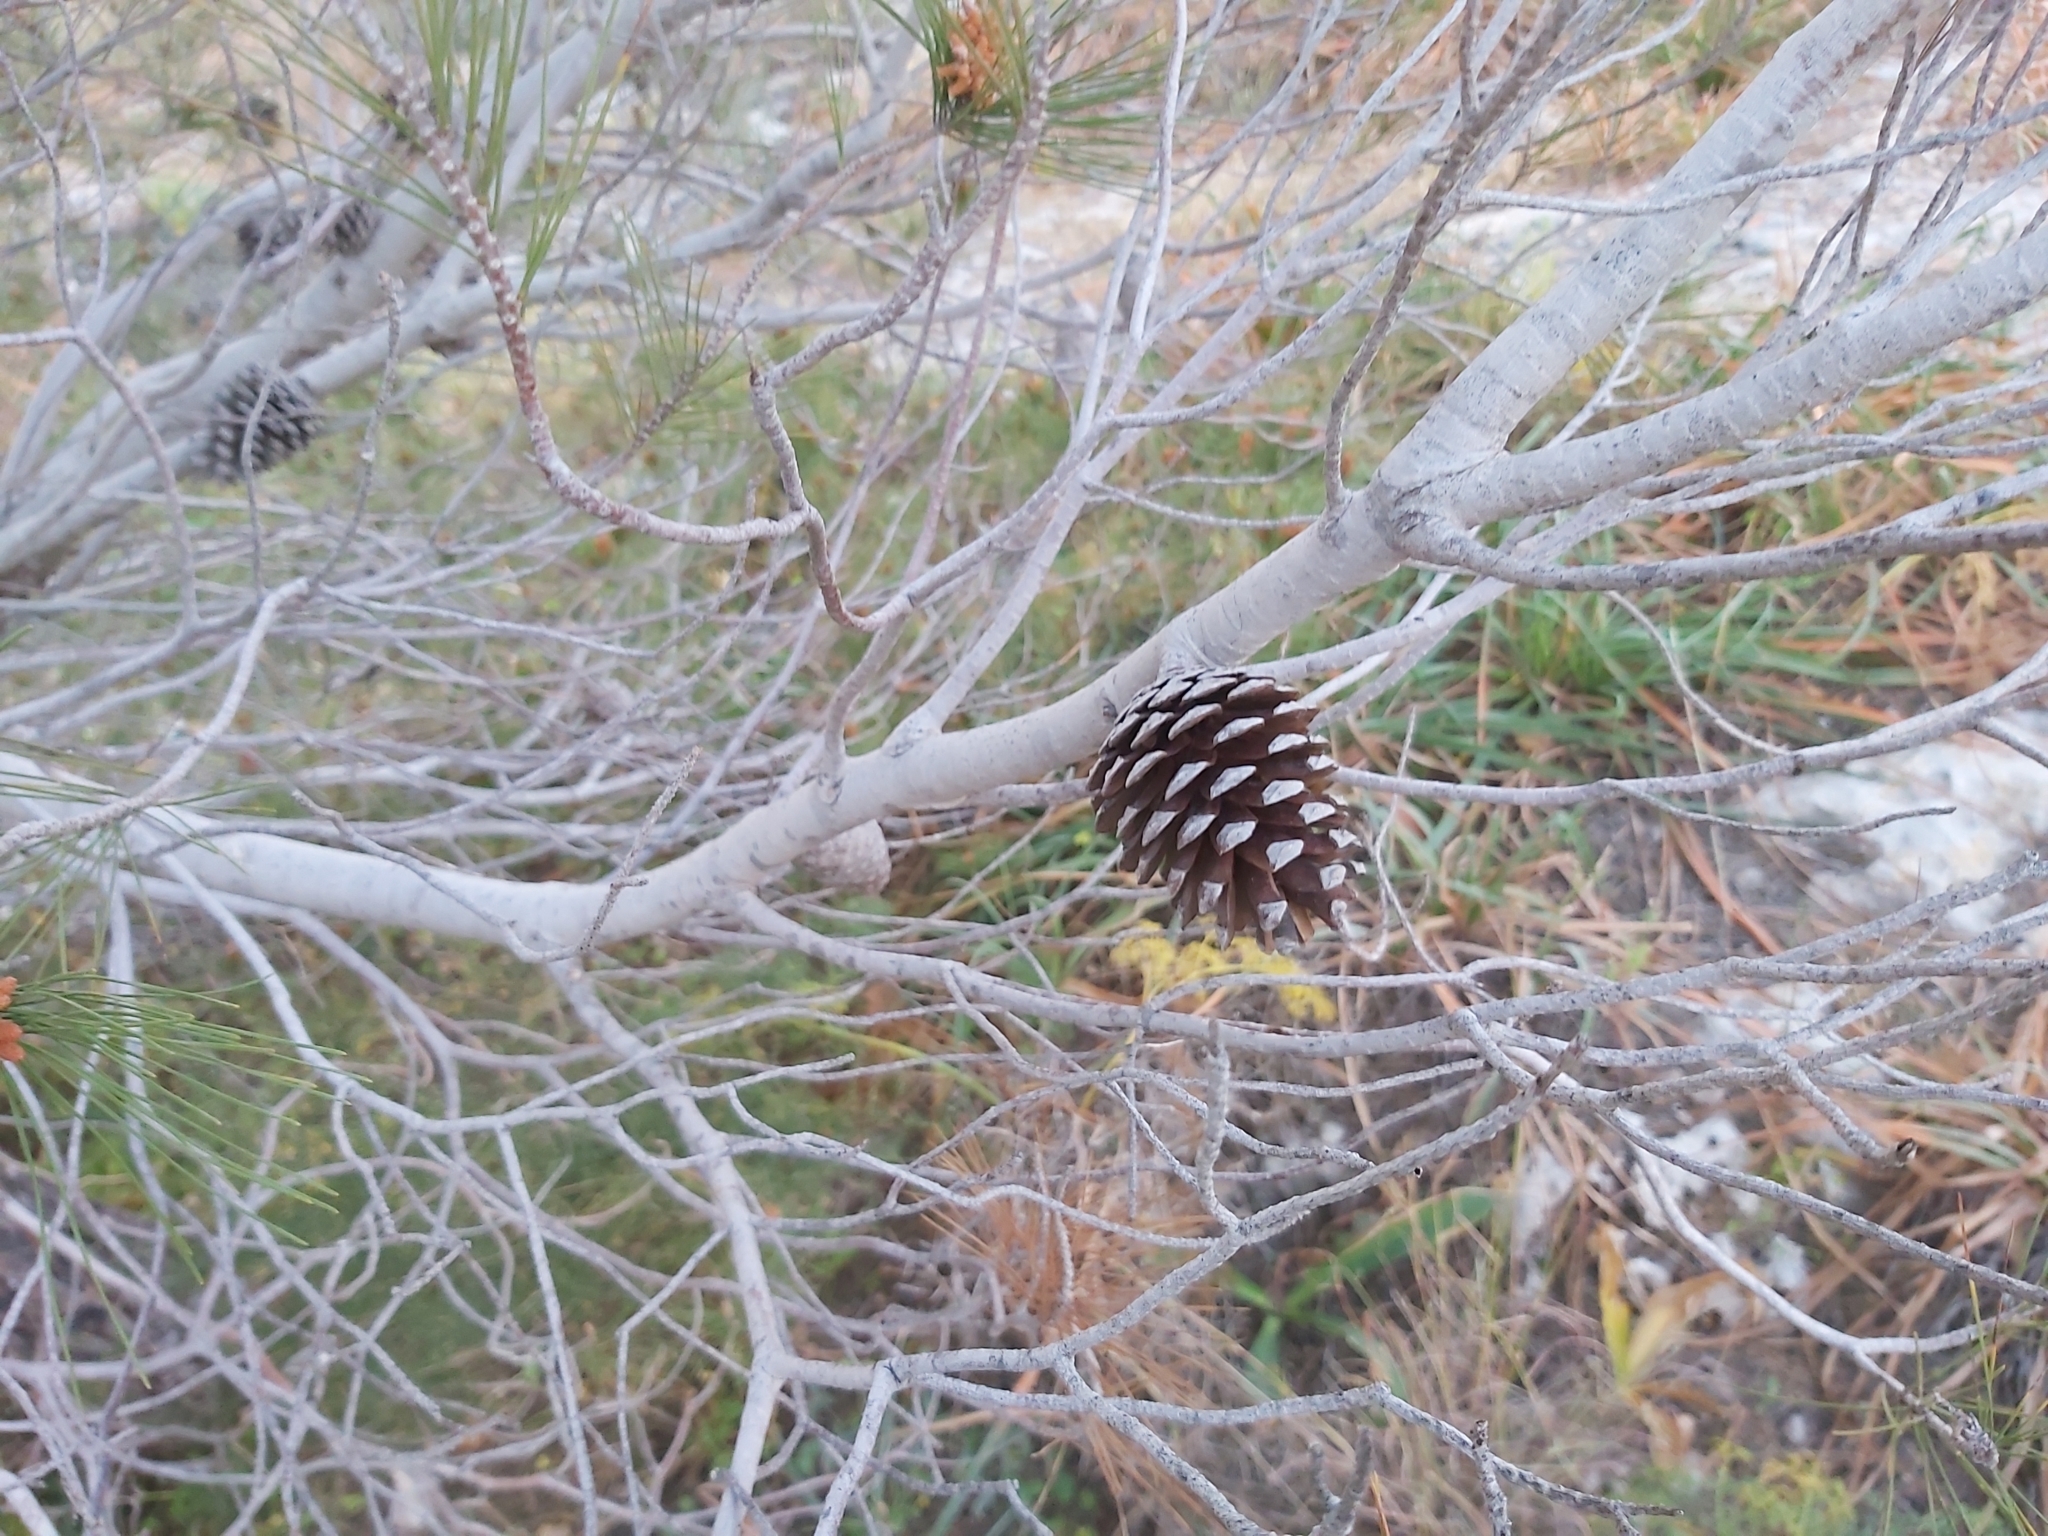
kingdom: Plantae
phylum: Tracheophyta
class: Pinopsida
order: Pinales
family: Pinaceae
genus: Pinus
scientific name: Pinus halepensis
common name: Aleppo pine
